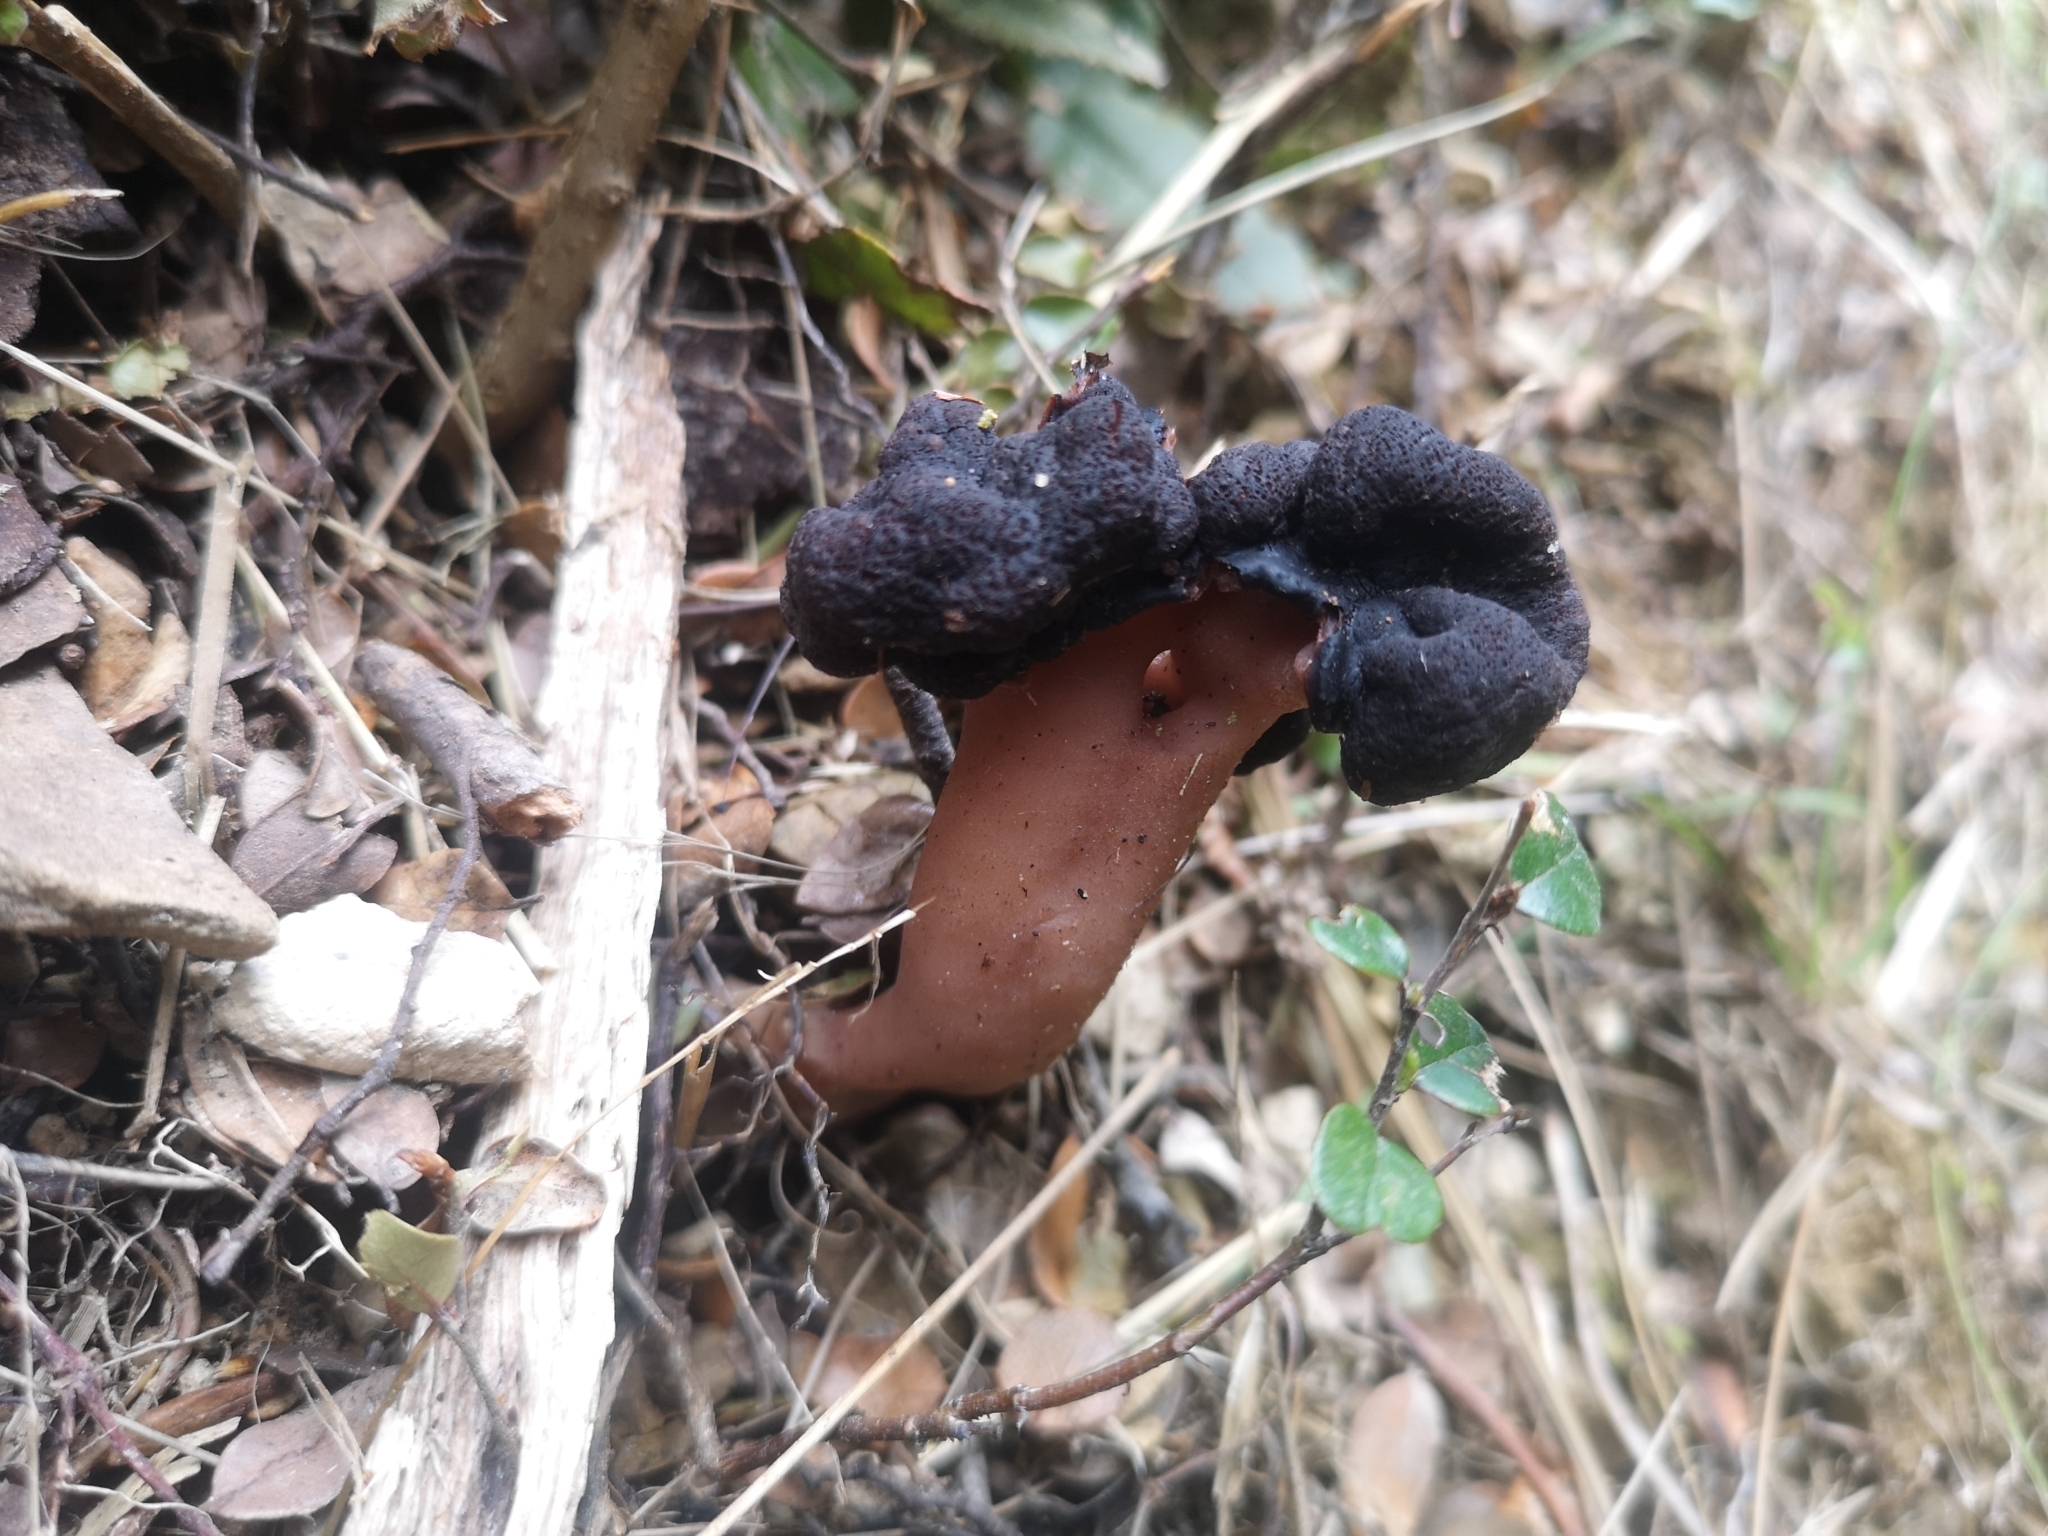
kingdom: Fungi
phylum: Ascomycota
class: Pezizomycetes
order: Pezizales
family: Discinaceae
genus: Gyromitra
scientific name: Gyromitra tasmanica
